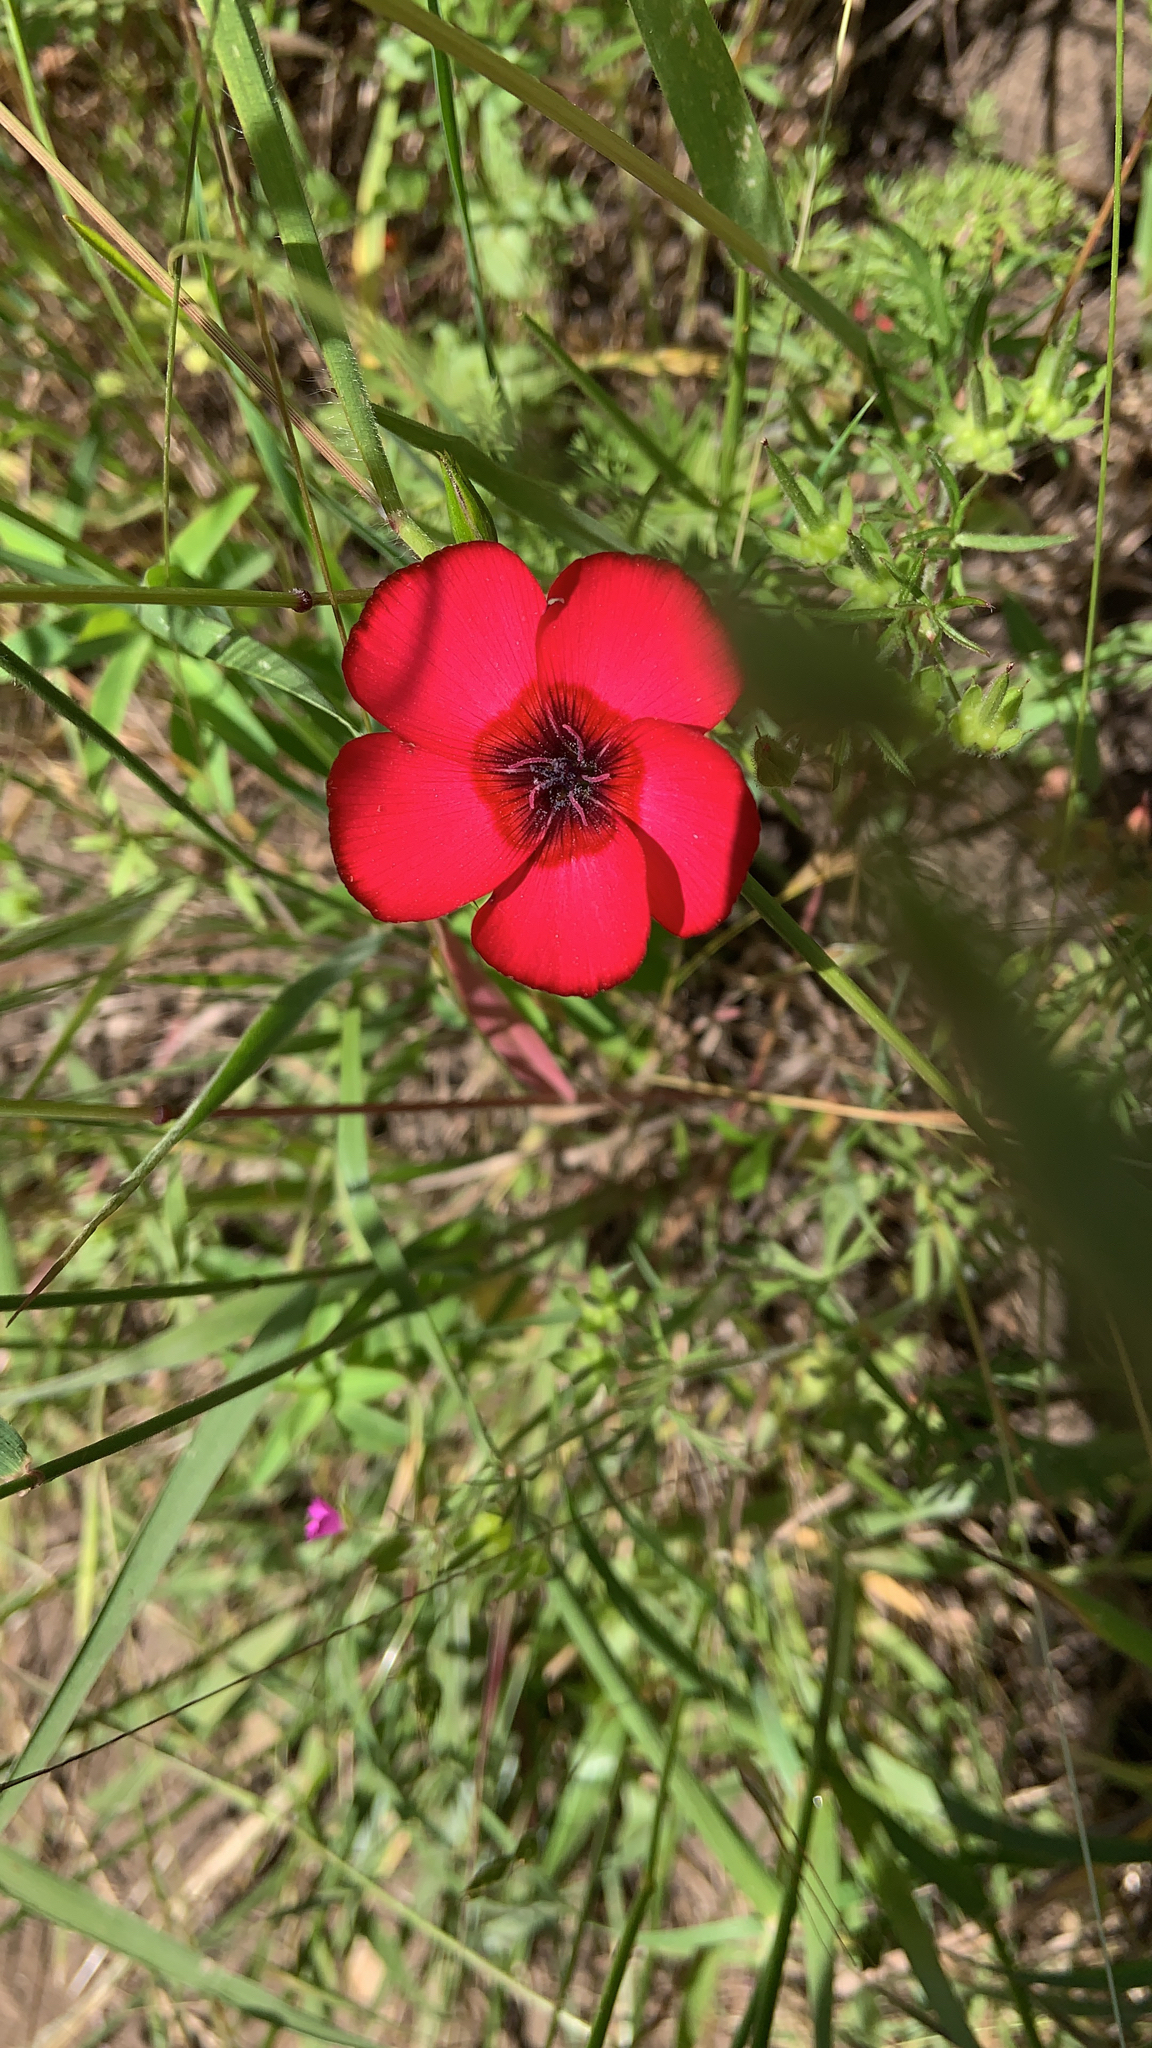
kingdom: Plantae
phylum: Tracheophyta
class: Magnoliopsida
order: Malpighiales
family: Linaceae
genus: Linum
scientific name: Linum grandiflorum
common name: Crimson flax
